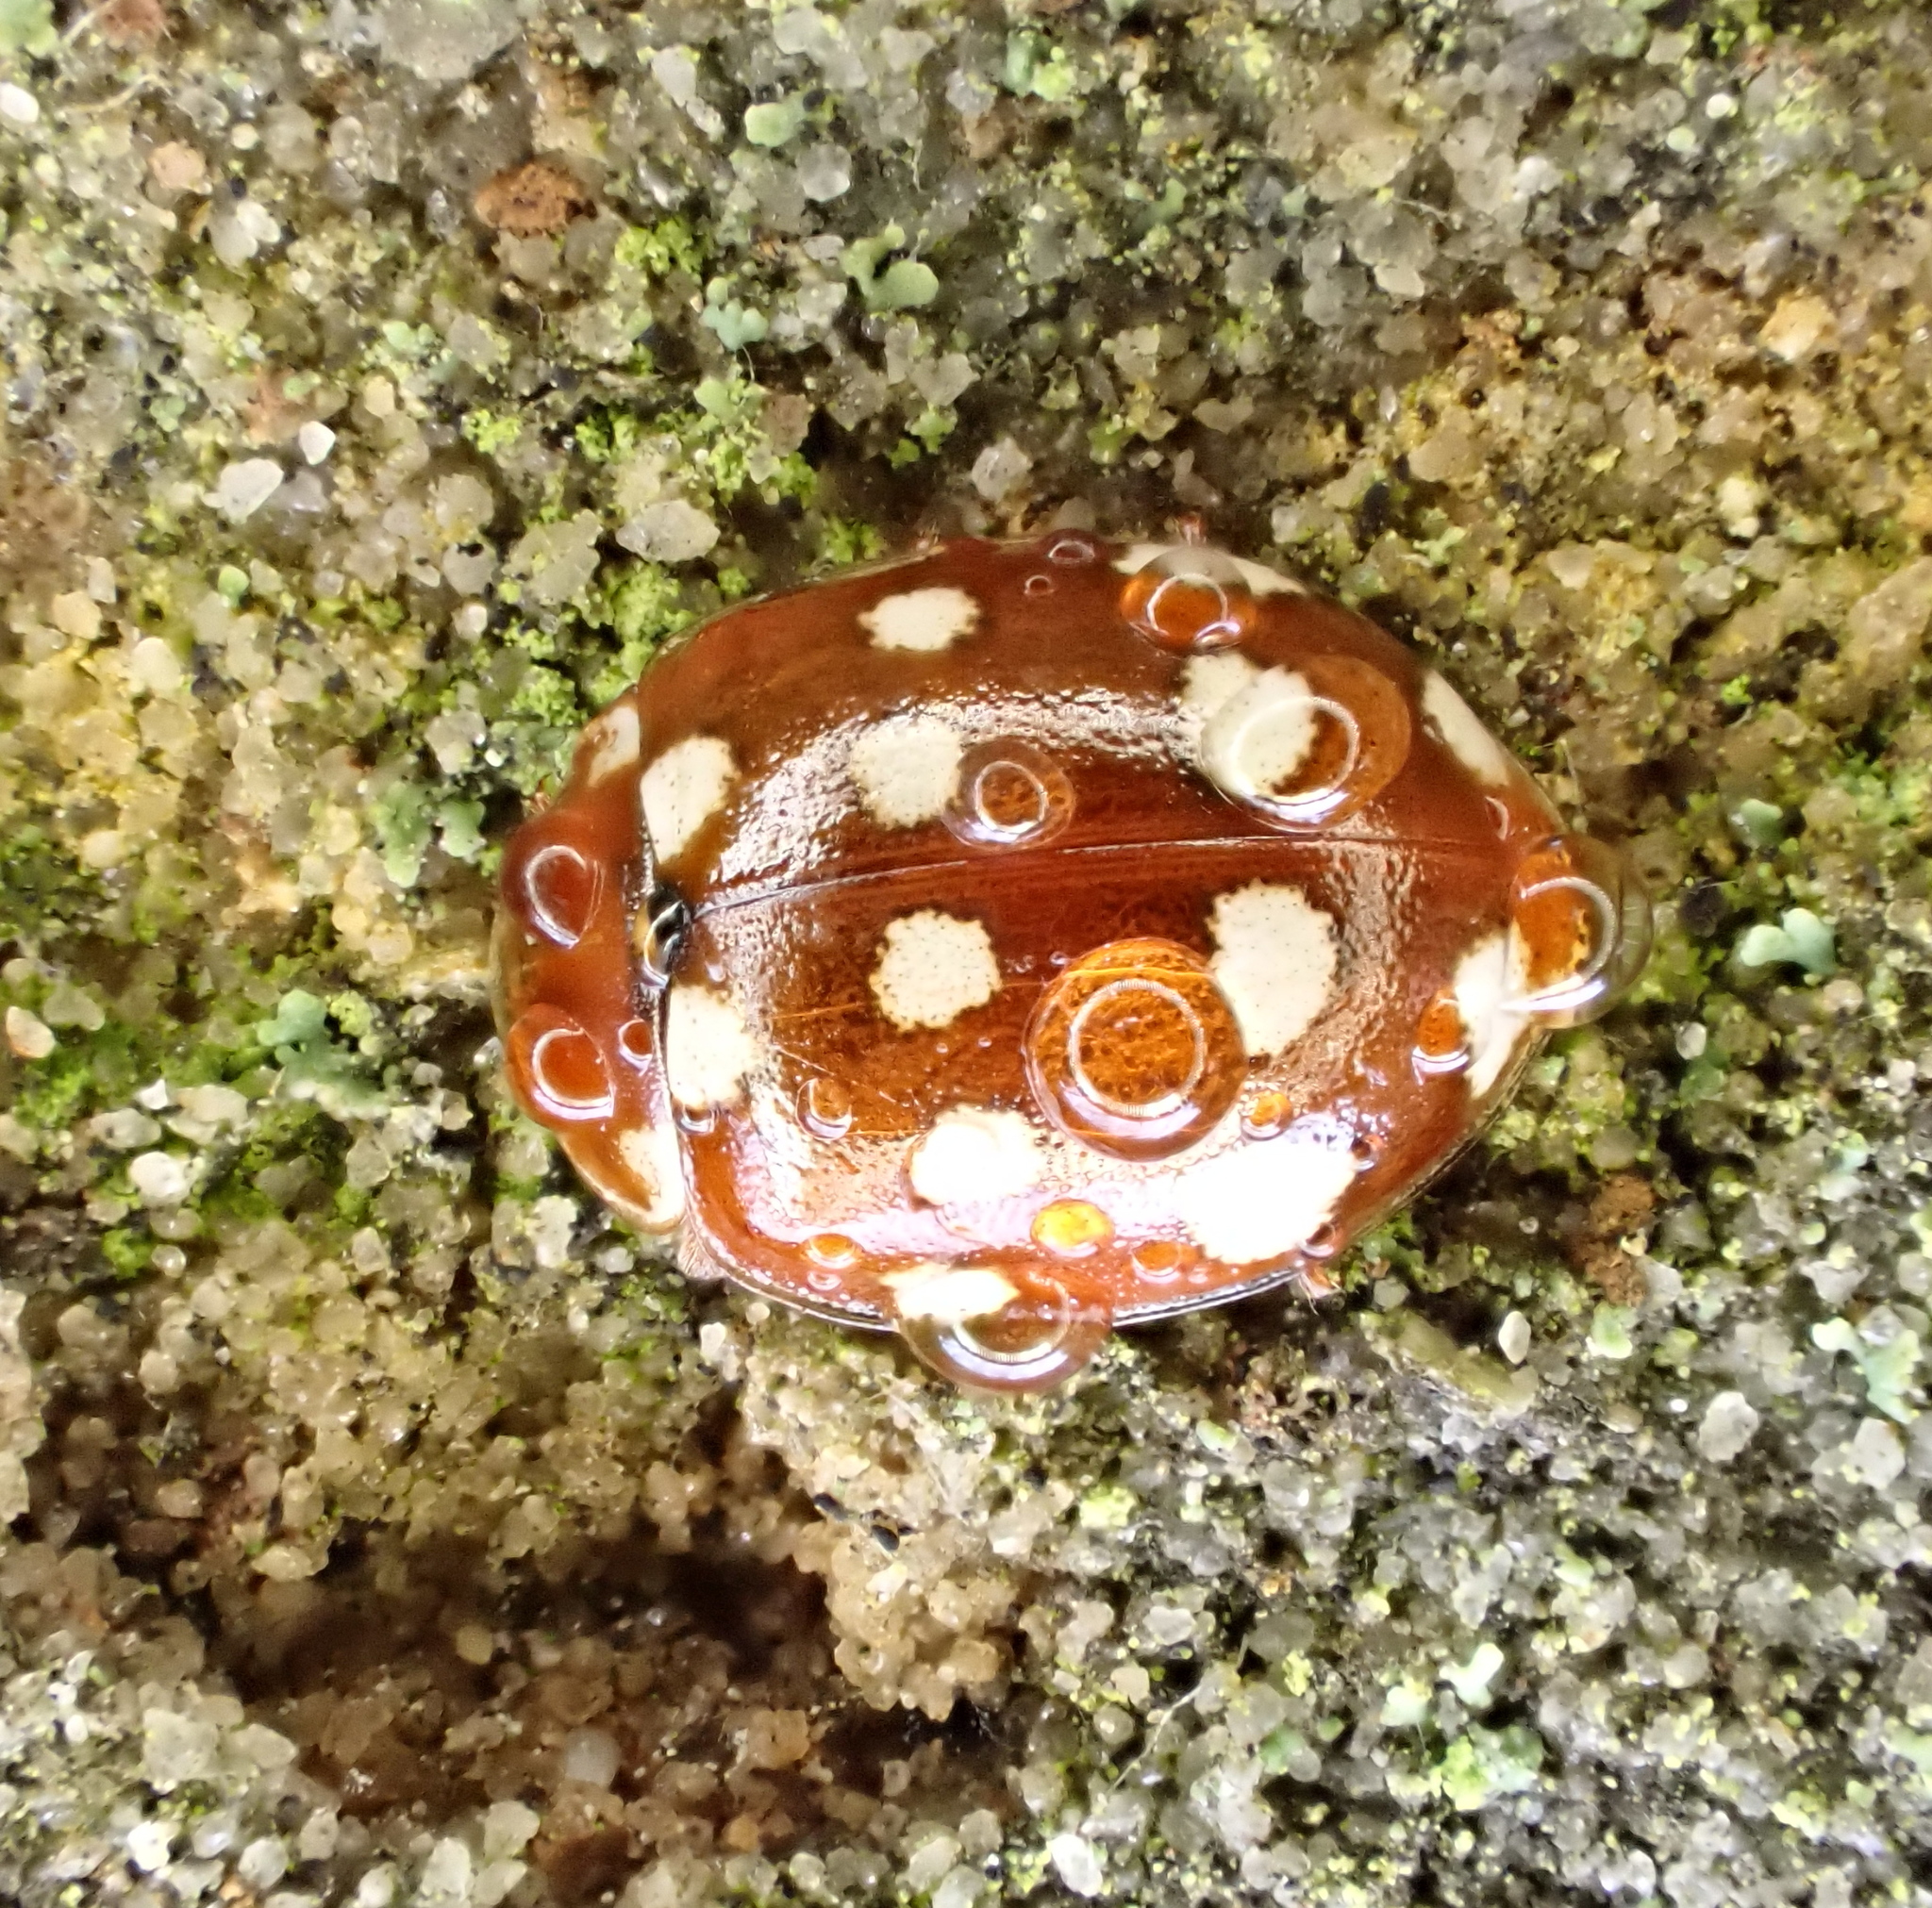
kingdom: Animalia
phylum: Arthropoda
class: Insecta
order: Coleoptera
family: Coccinellidae
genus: Calvia
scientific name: Calvia quatuordecimguttata
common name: Cream-spot ladybird
